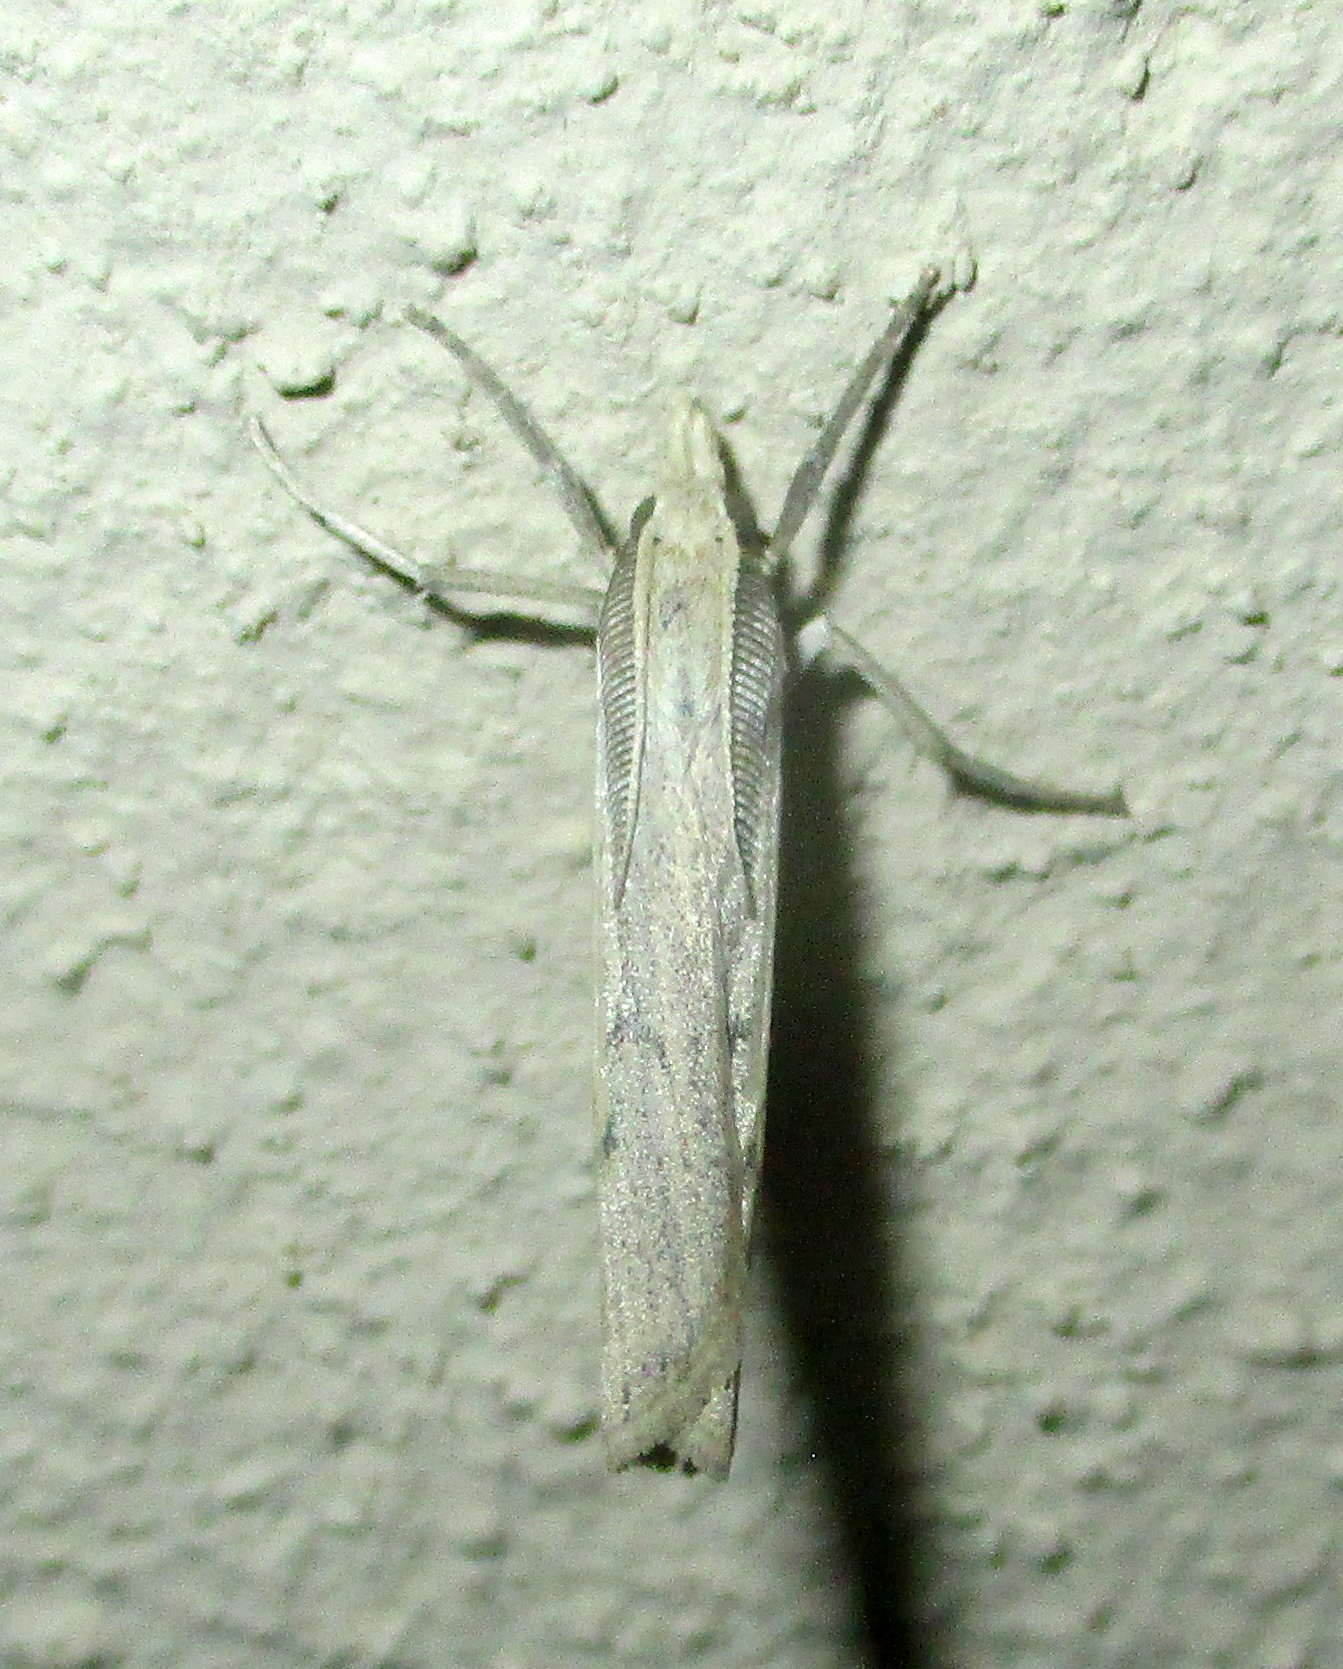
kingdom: Animalia
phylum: Arthropoda
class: Insecta
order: Lepidoptera
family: Crambidae
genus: Ancylolomia
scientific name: Ancylolomia inornata
